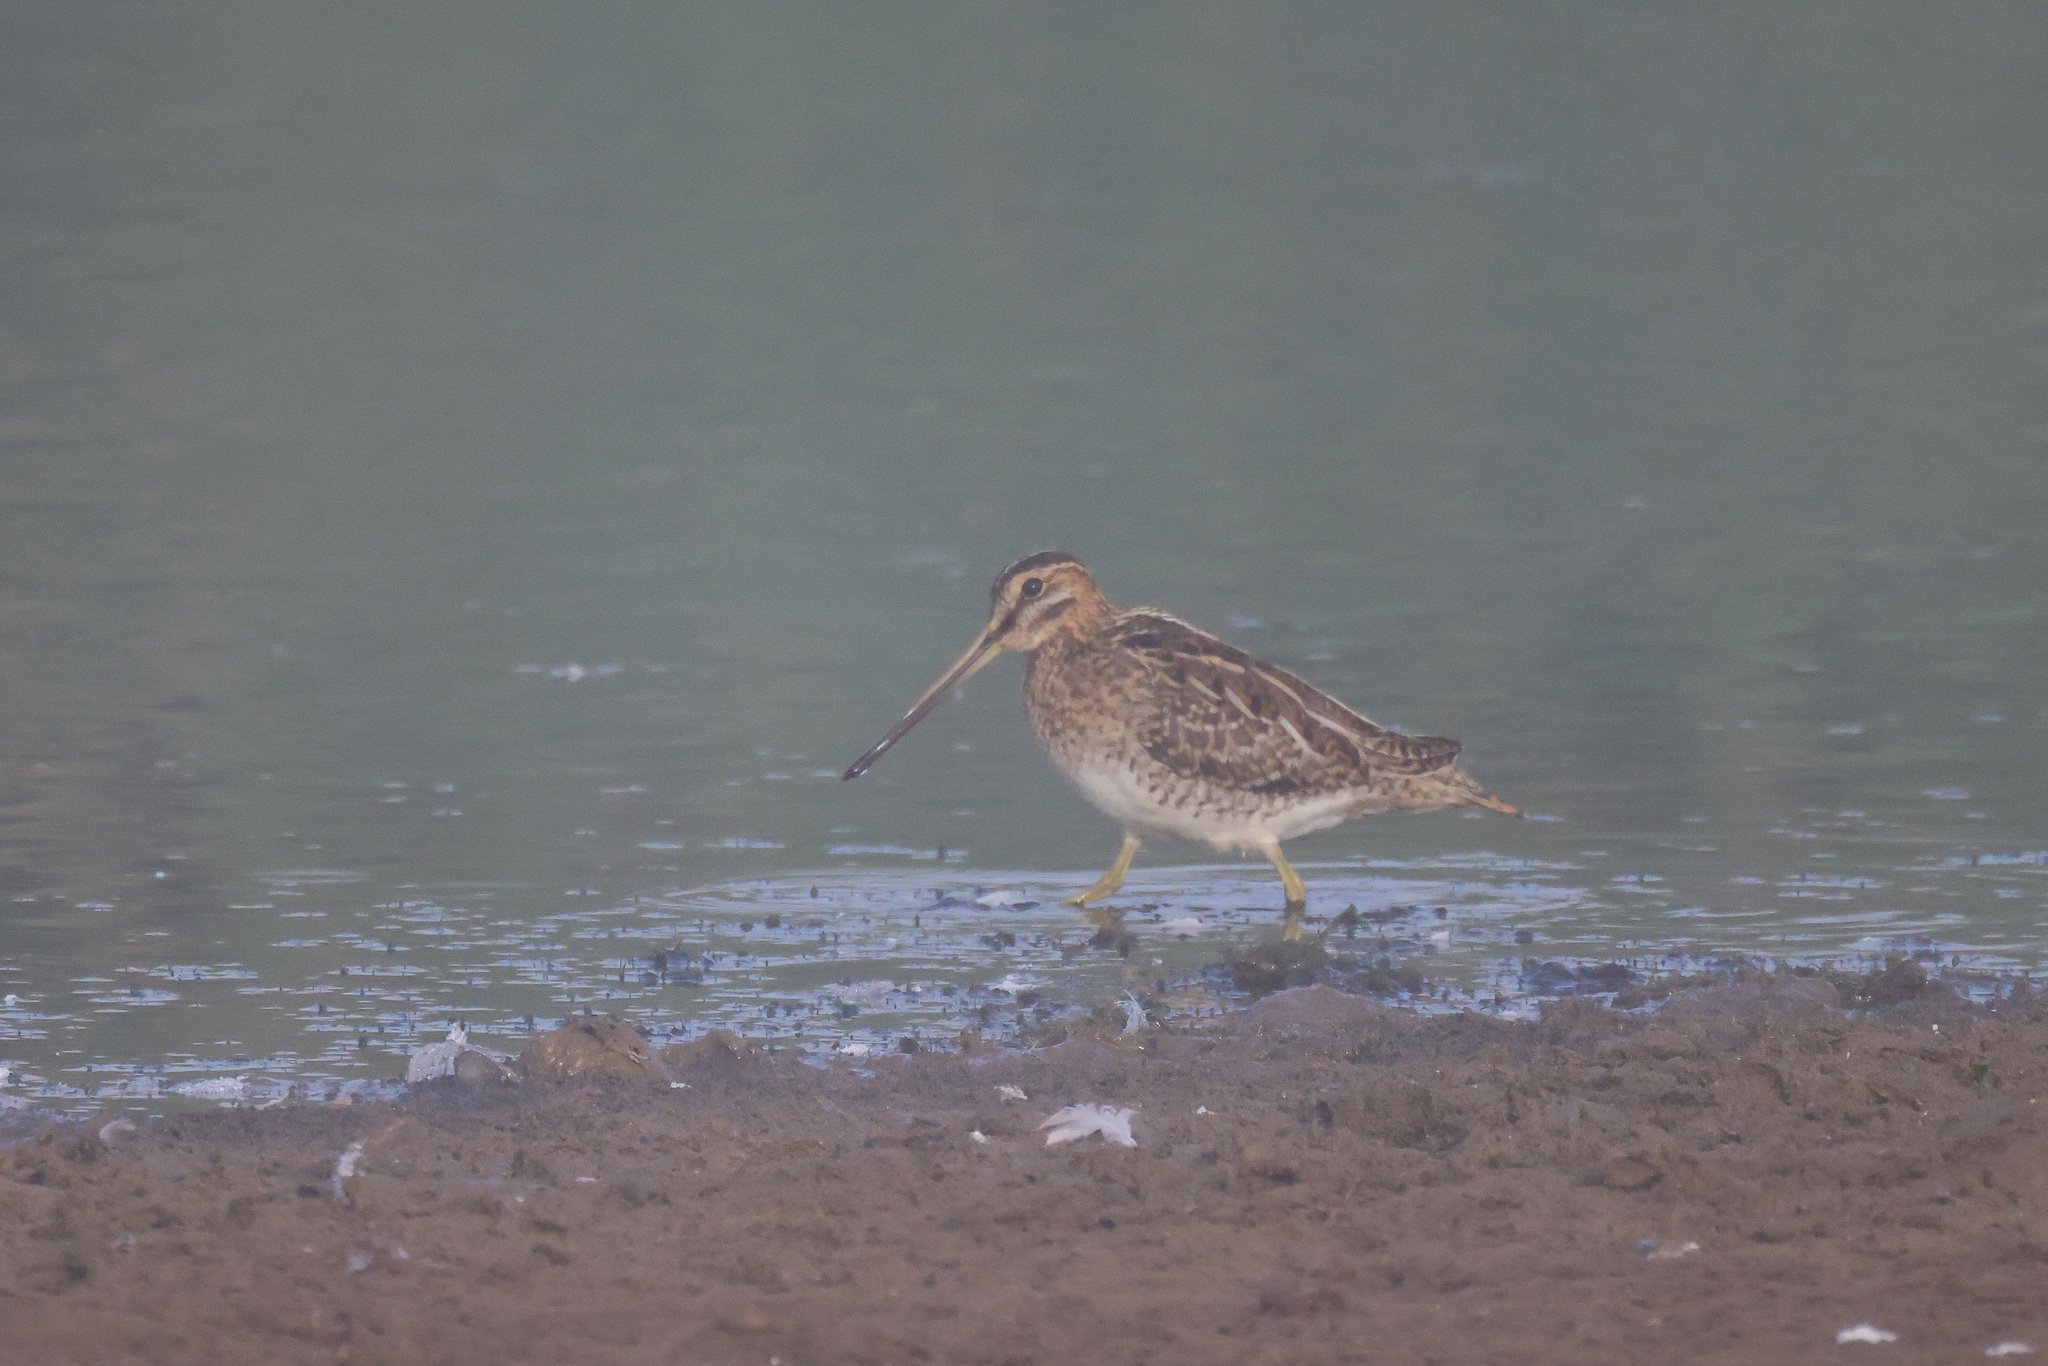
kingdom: Animalia
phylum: Chordata
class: Aves
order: Charadriiformes
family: Scolopacidae
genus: Gallinago
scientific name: Gallinago gallinago
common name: Common snipe
